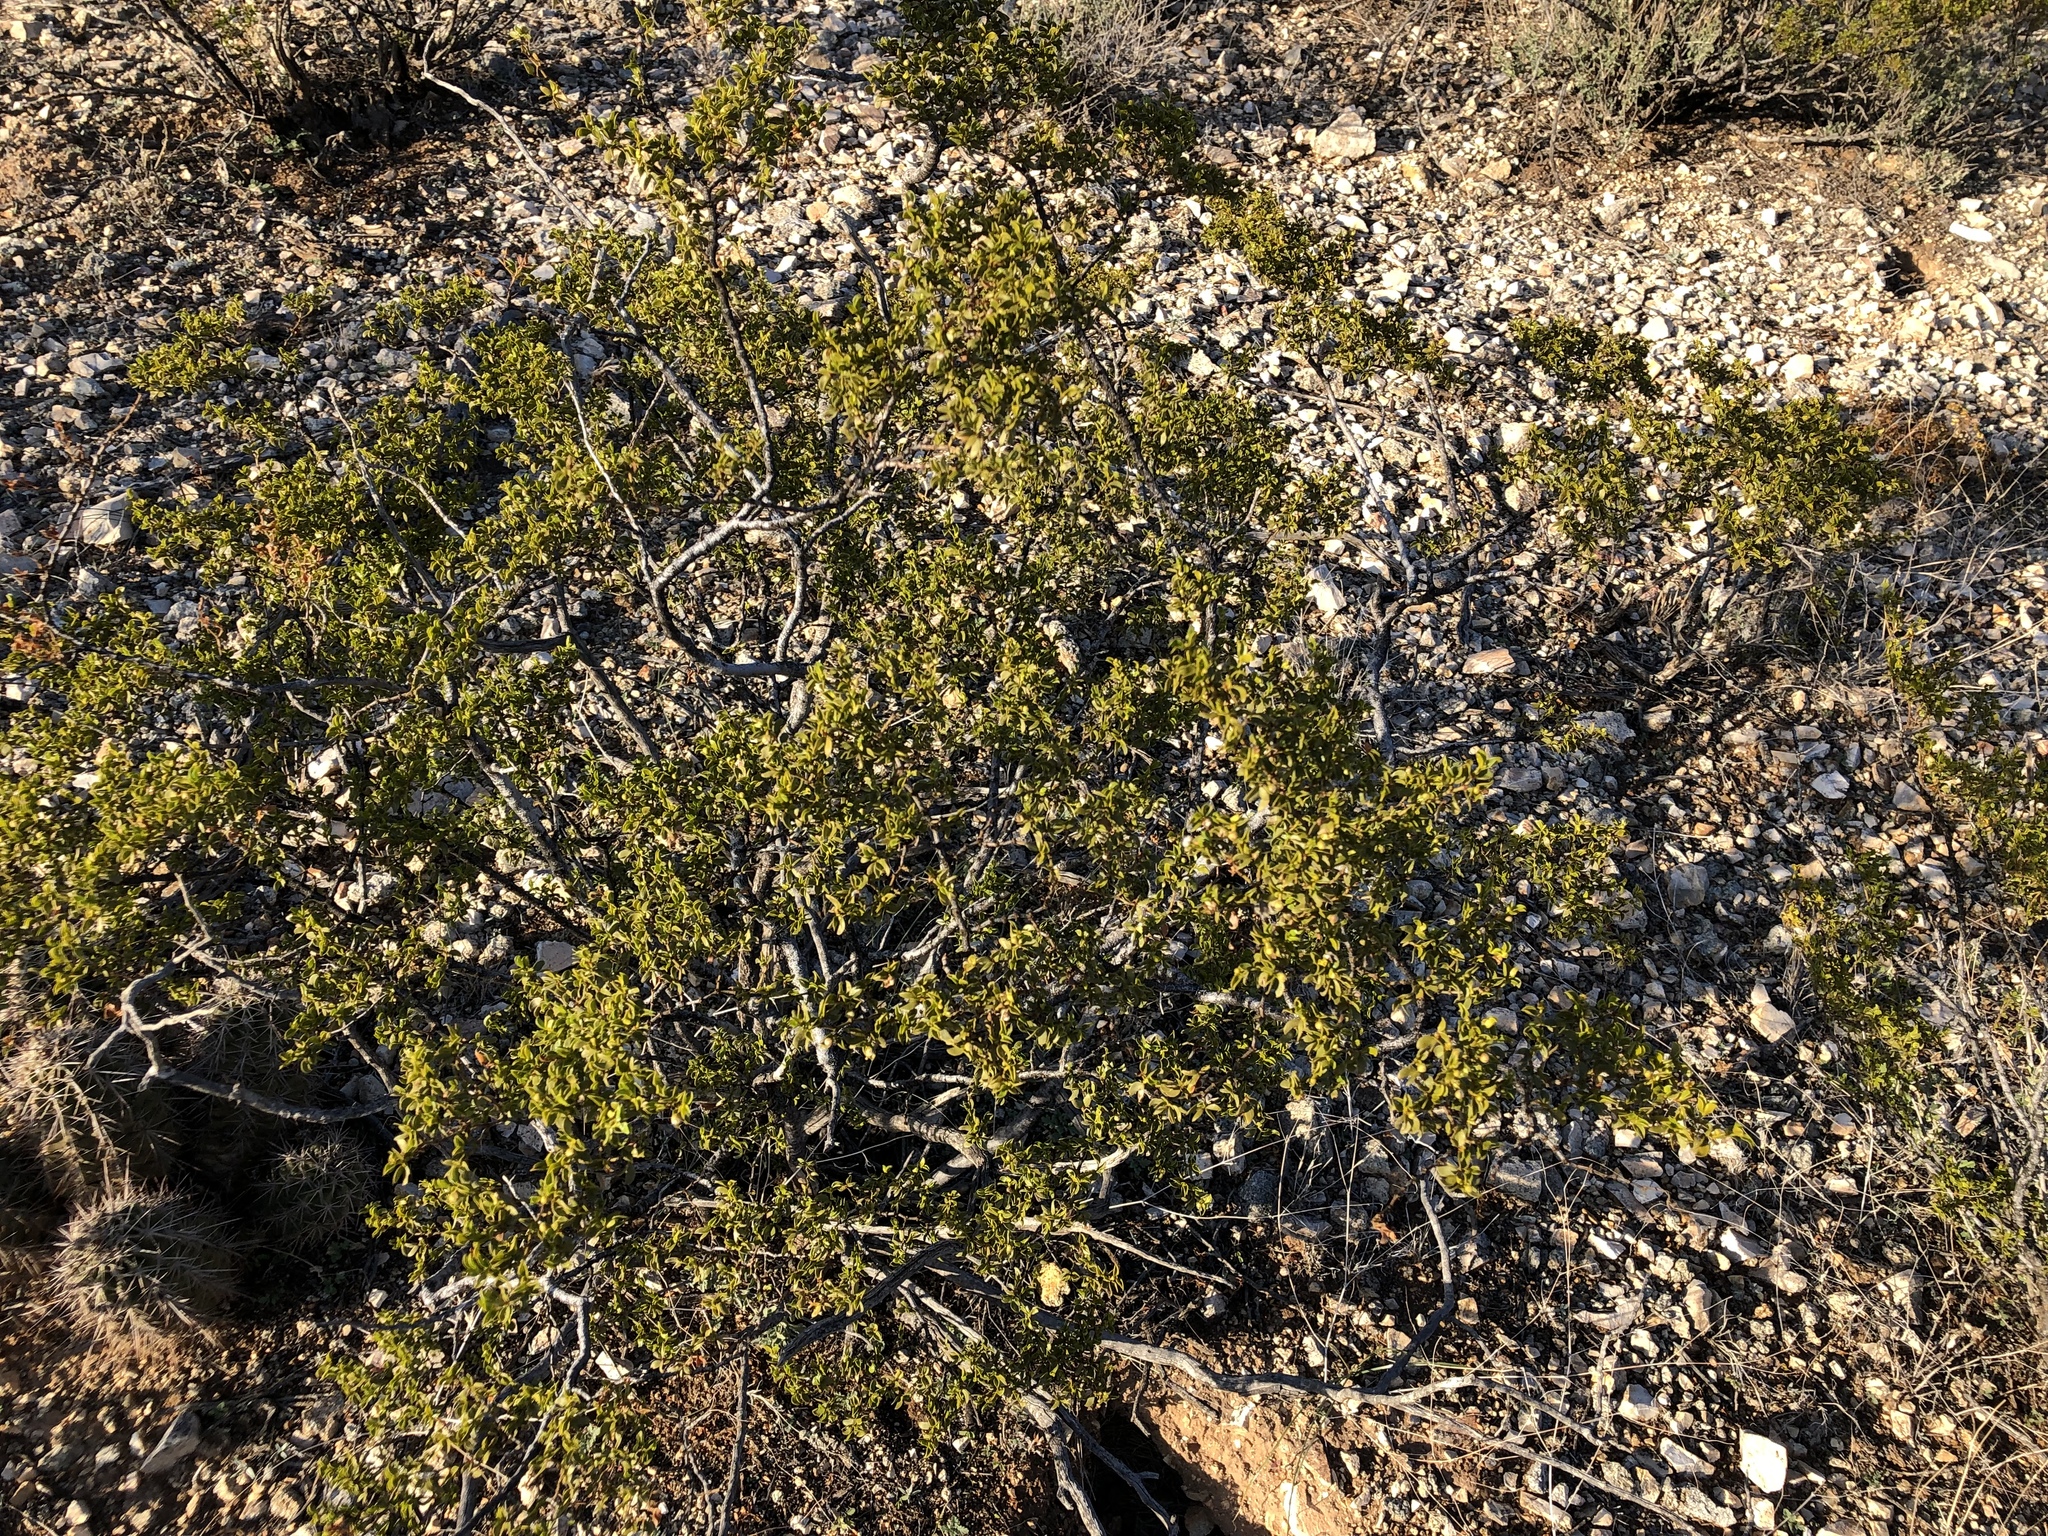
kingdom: Plantae
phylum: Tracheophyta
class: Magnoliopsida
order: Zygophyllales
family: Zygophyllaceae
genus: Larrea
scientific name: Larrea tridentata
